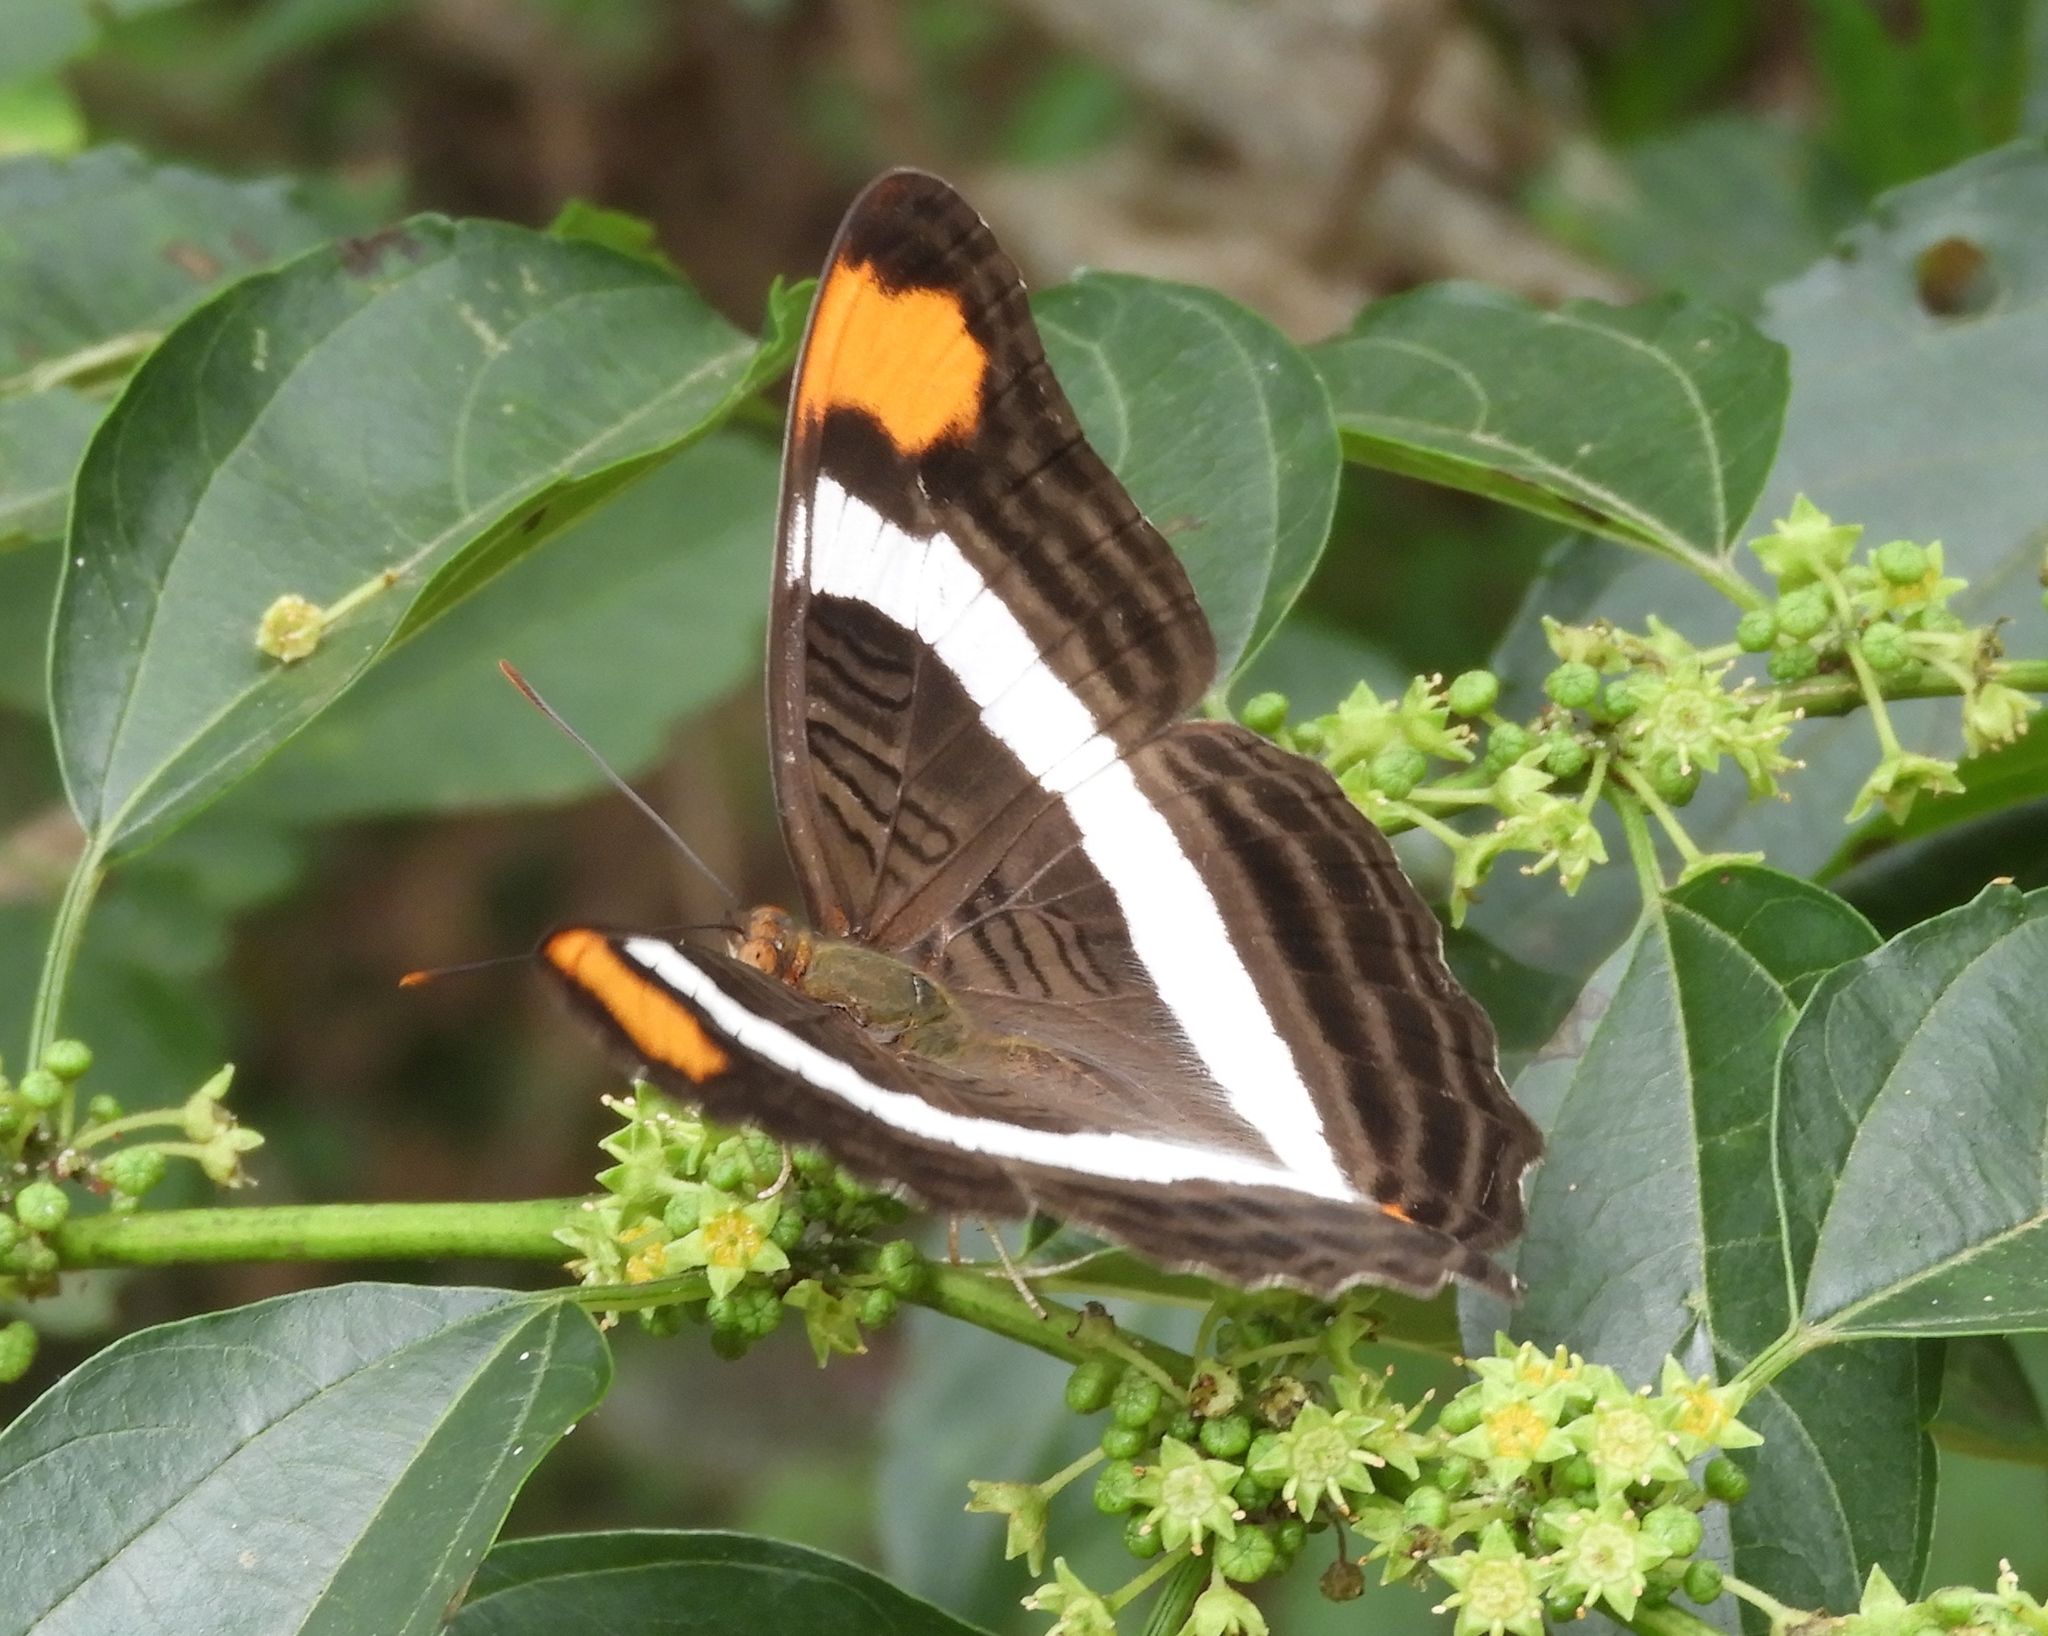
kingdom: Animalia
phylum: Arthropoda
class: Insecta
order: Lepidoptera
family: Nymphalidae
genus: Limenitis
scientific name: Limenitis fessonia
